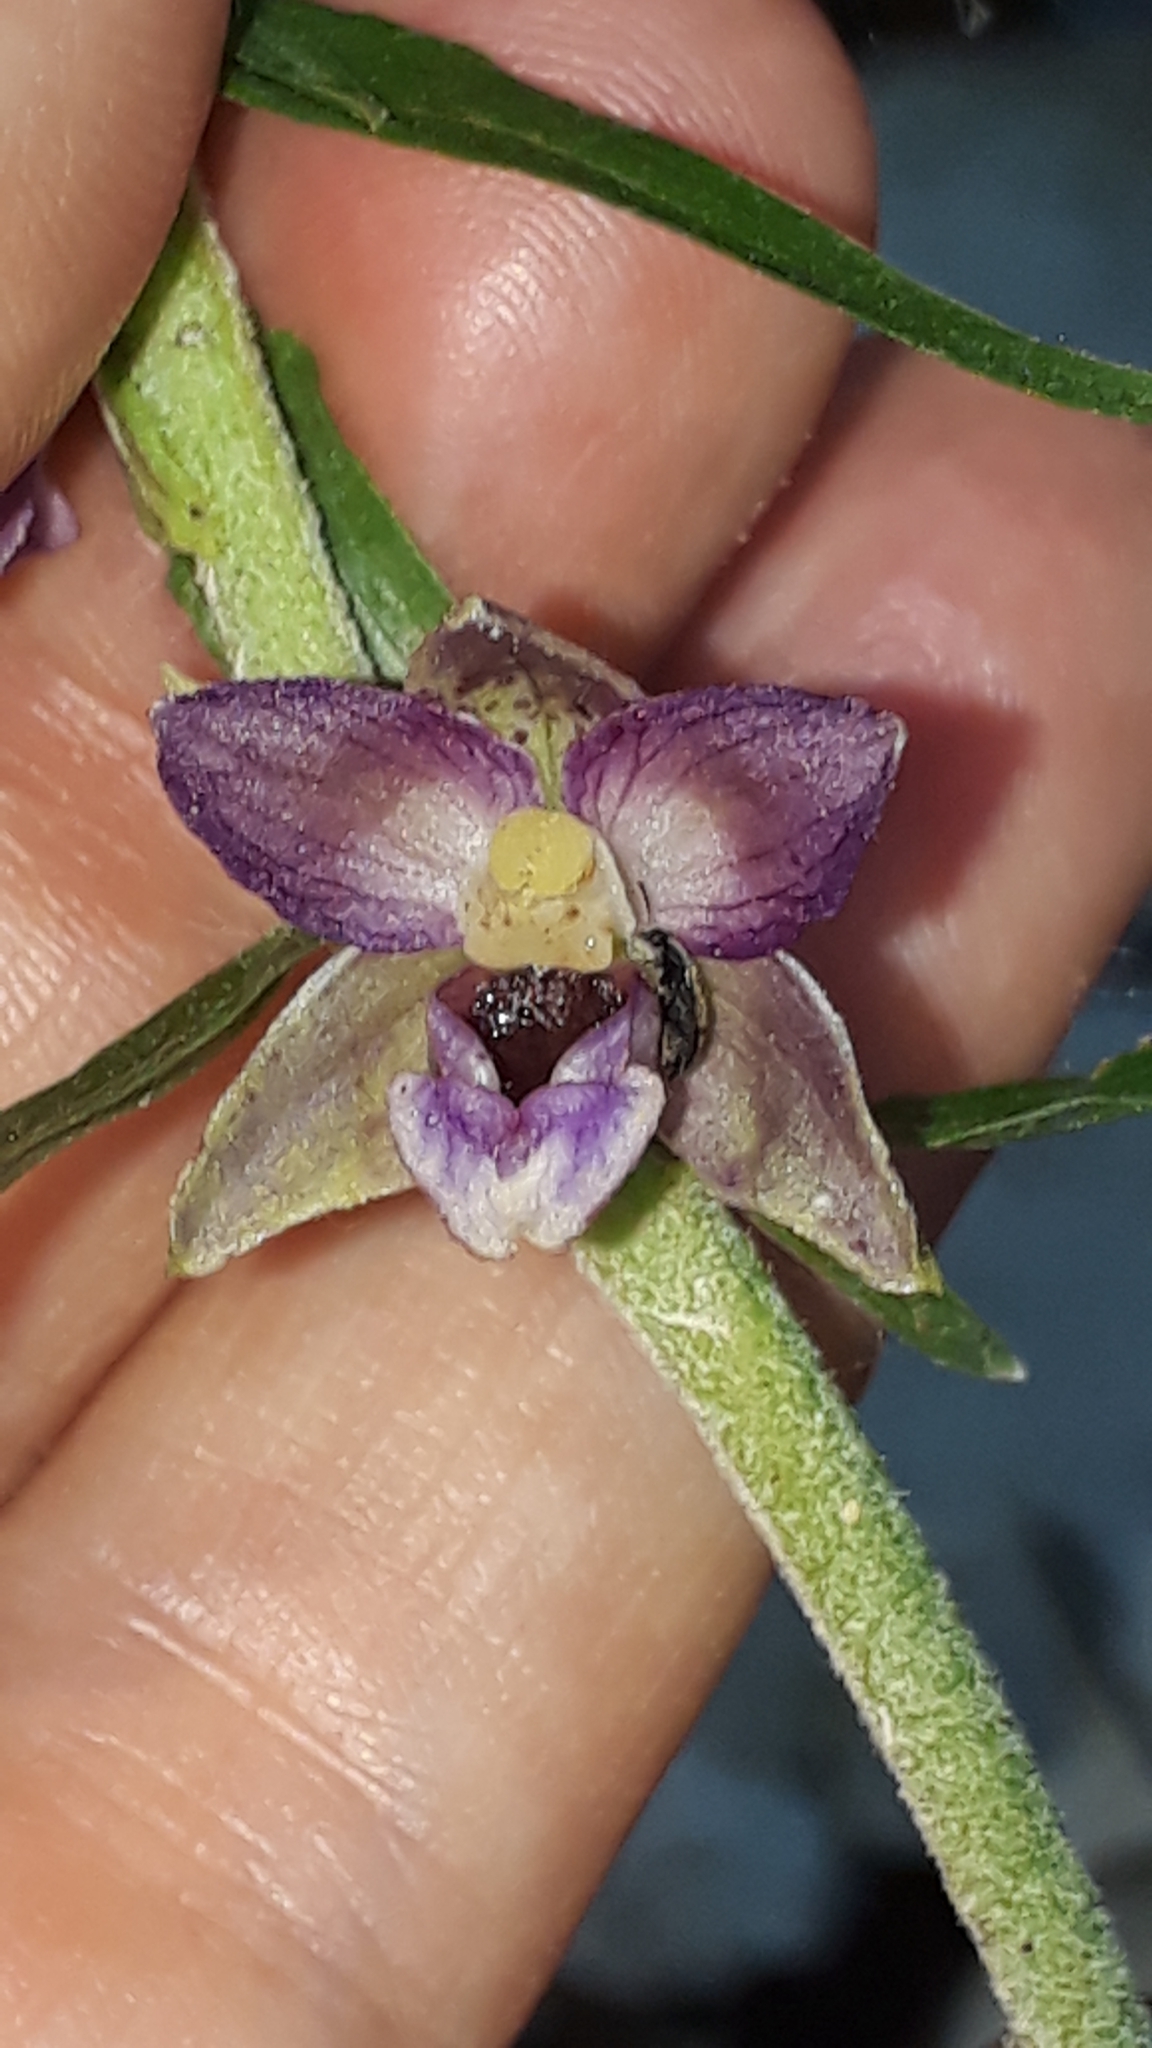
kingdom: Plantae
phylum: Tracheophyta
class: Liliopsida
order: Asparagales
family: Orchidaceae
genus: Epipactis
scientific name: Epipactis atrorubens
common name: Dark-red helleborine
